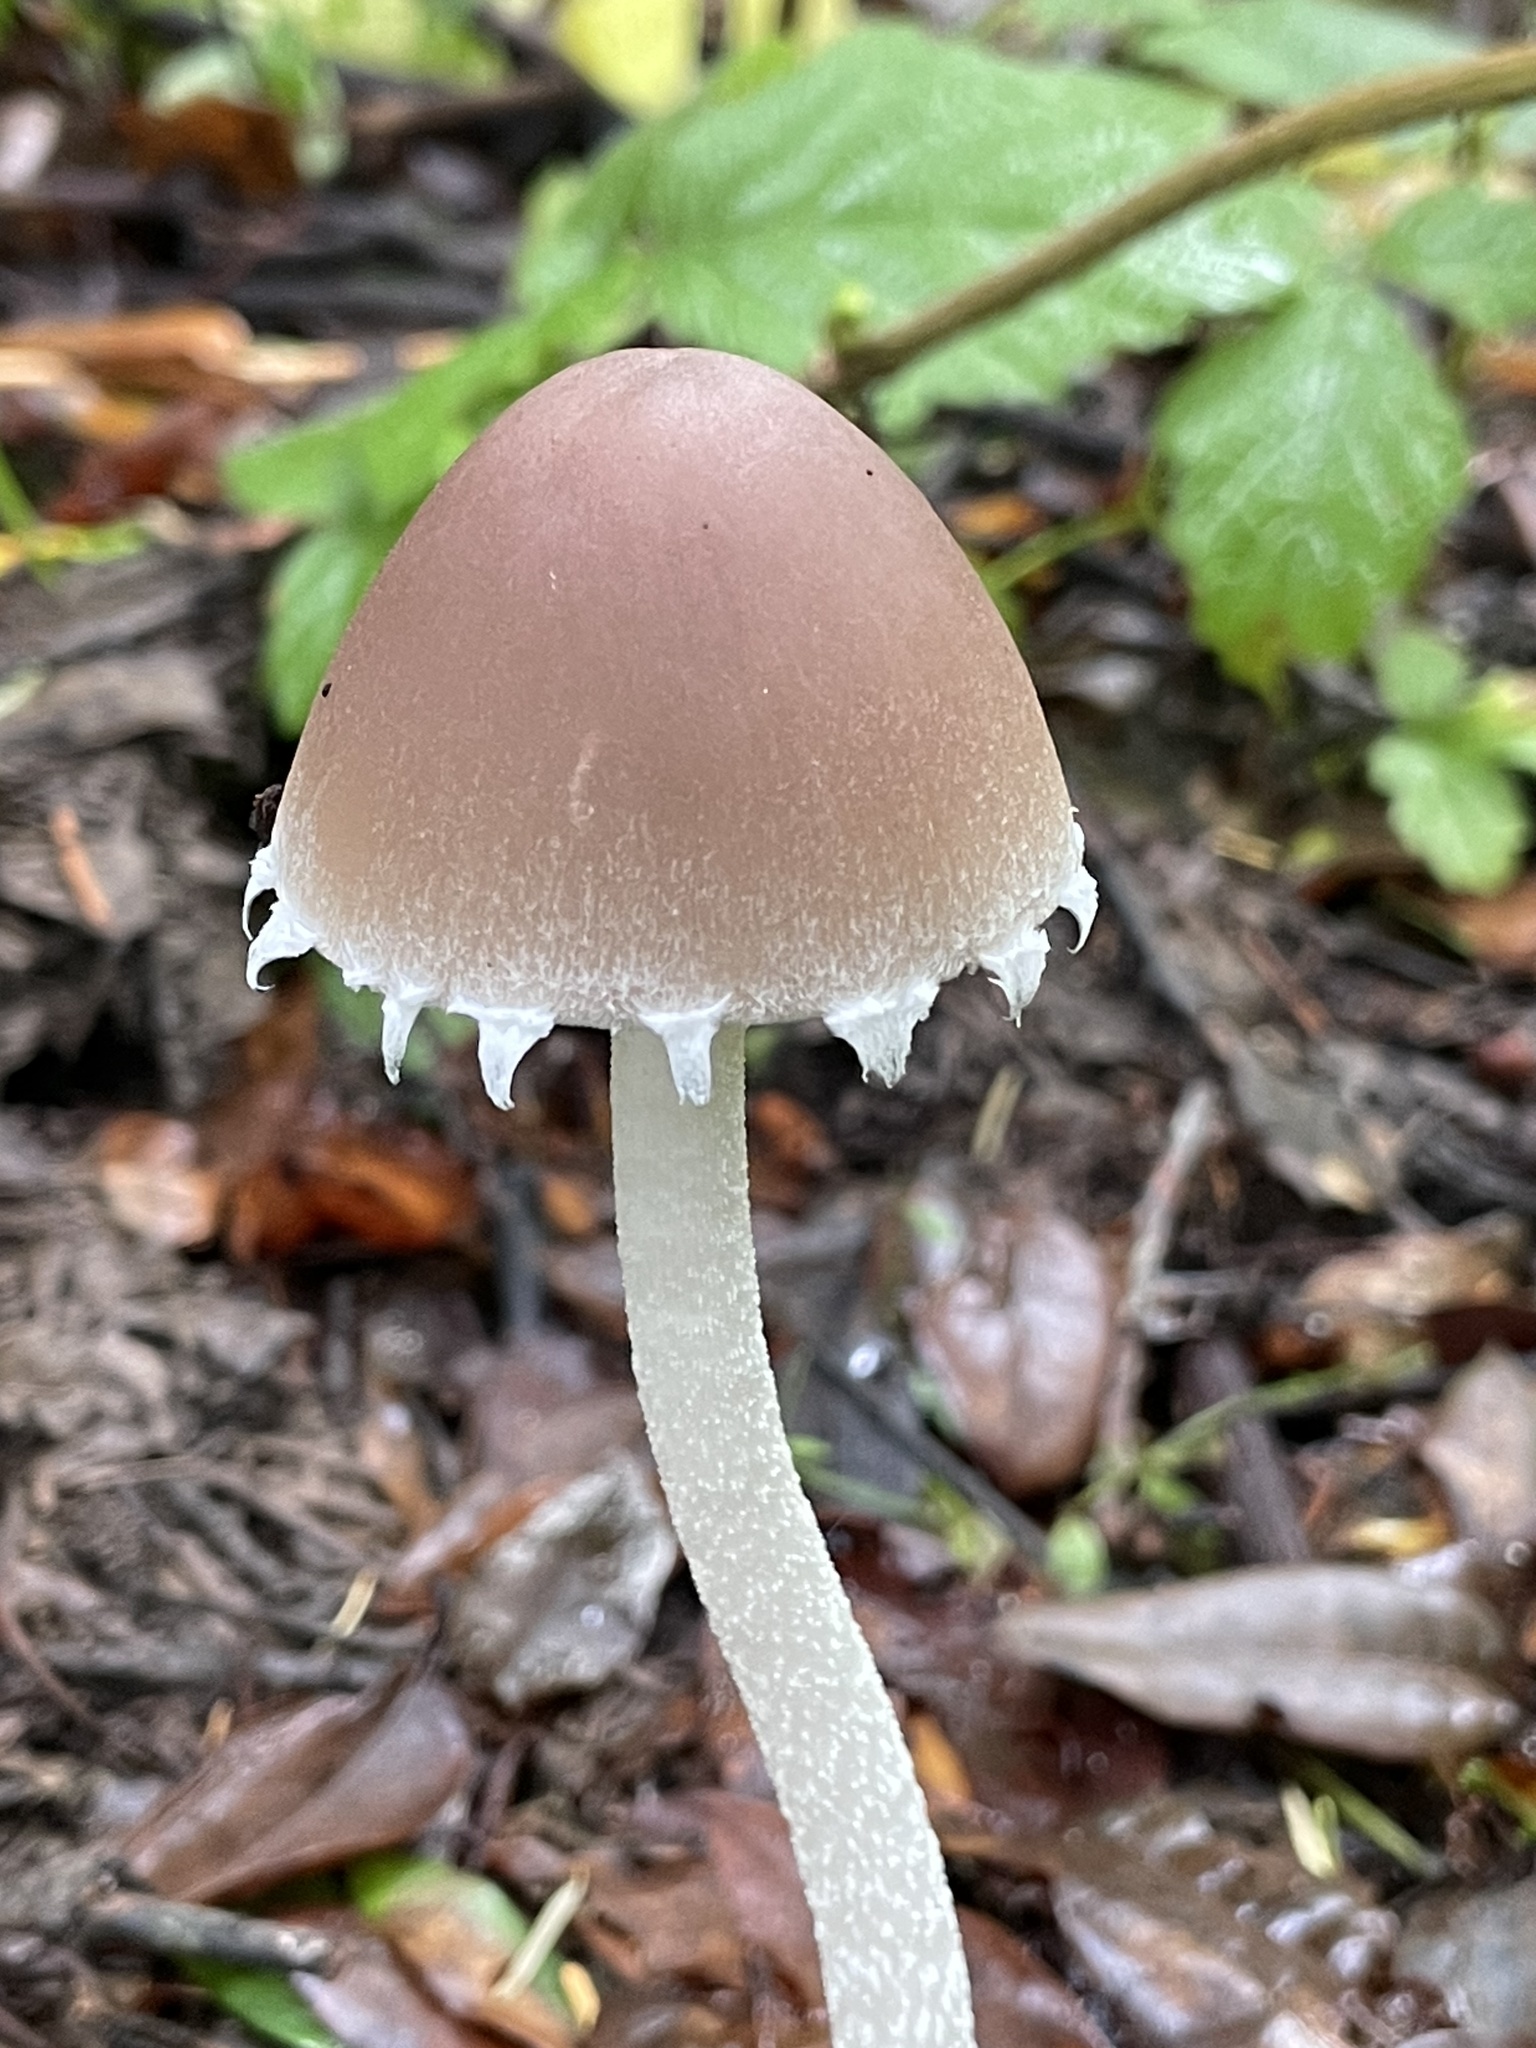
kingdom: Fungi
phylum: Basidiomycota
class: Agaricomycetes
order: Agaricales
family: Psathyrellaceae
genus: Psathyrella
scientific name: Psathyrella longipes
